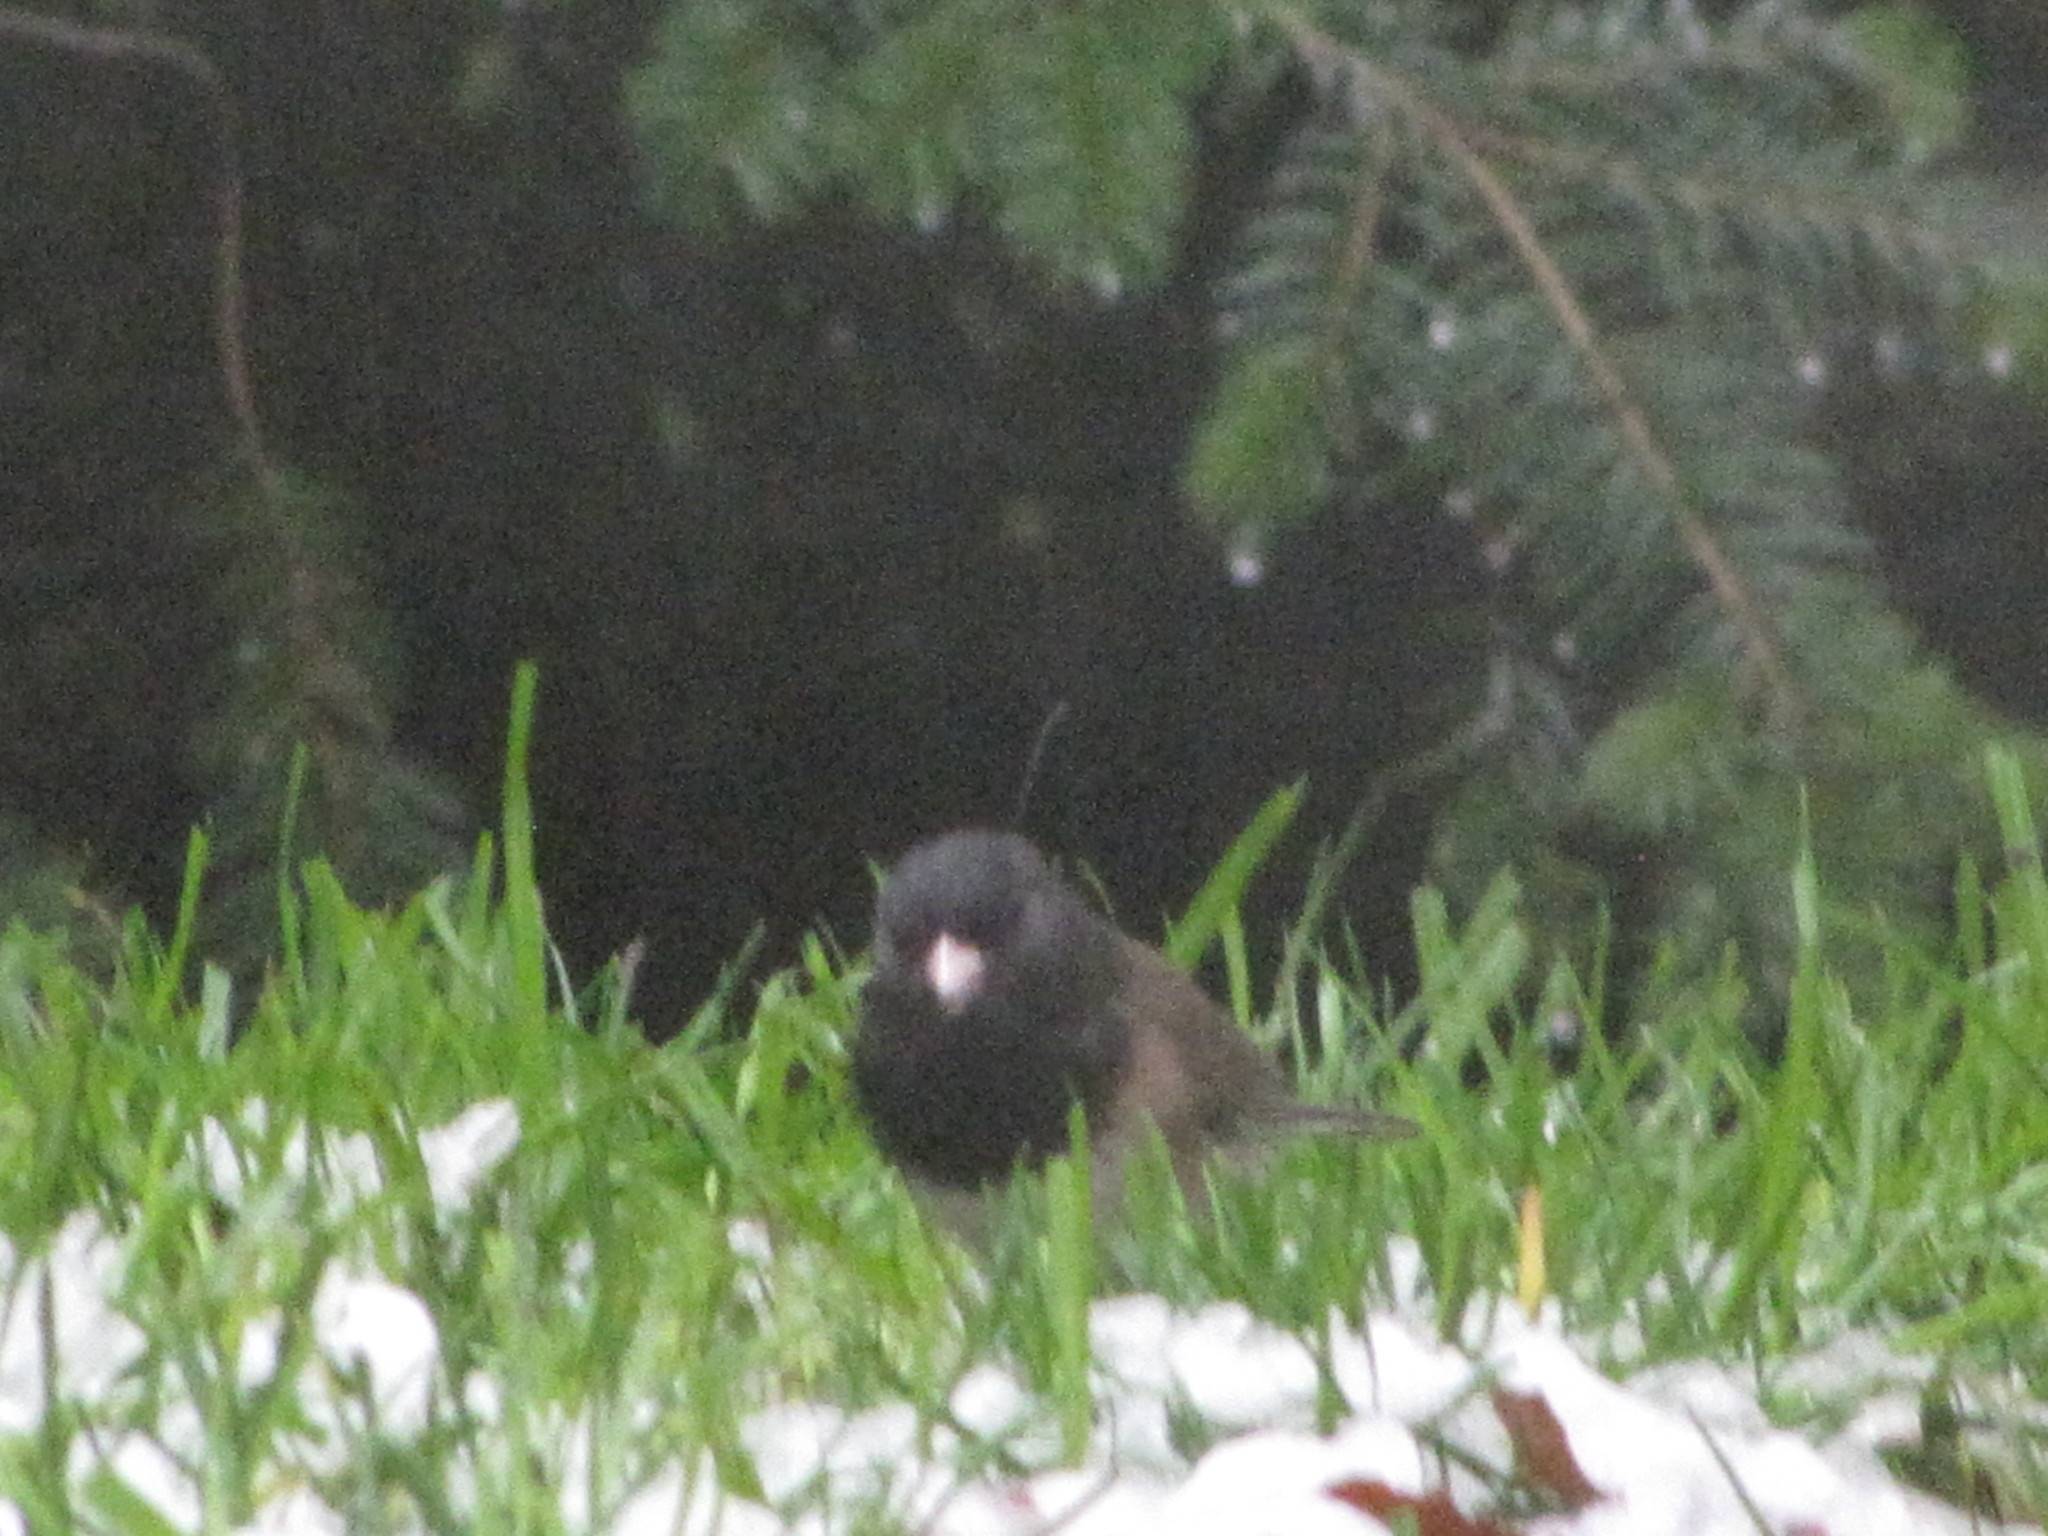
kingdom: Animalia
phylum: Chordata
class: Aves
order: Passeriformes
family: Passerellidae
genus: Junco
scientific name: Junco hyemalis
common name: Dark-eyed junco
